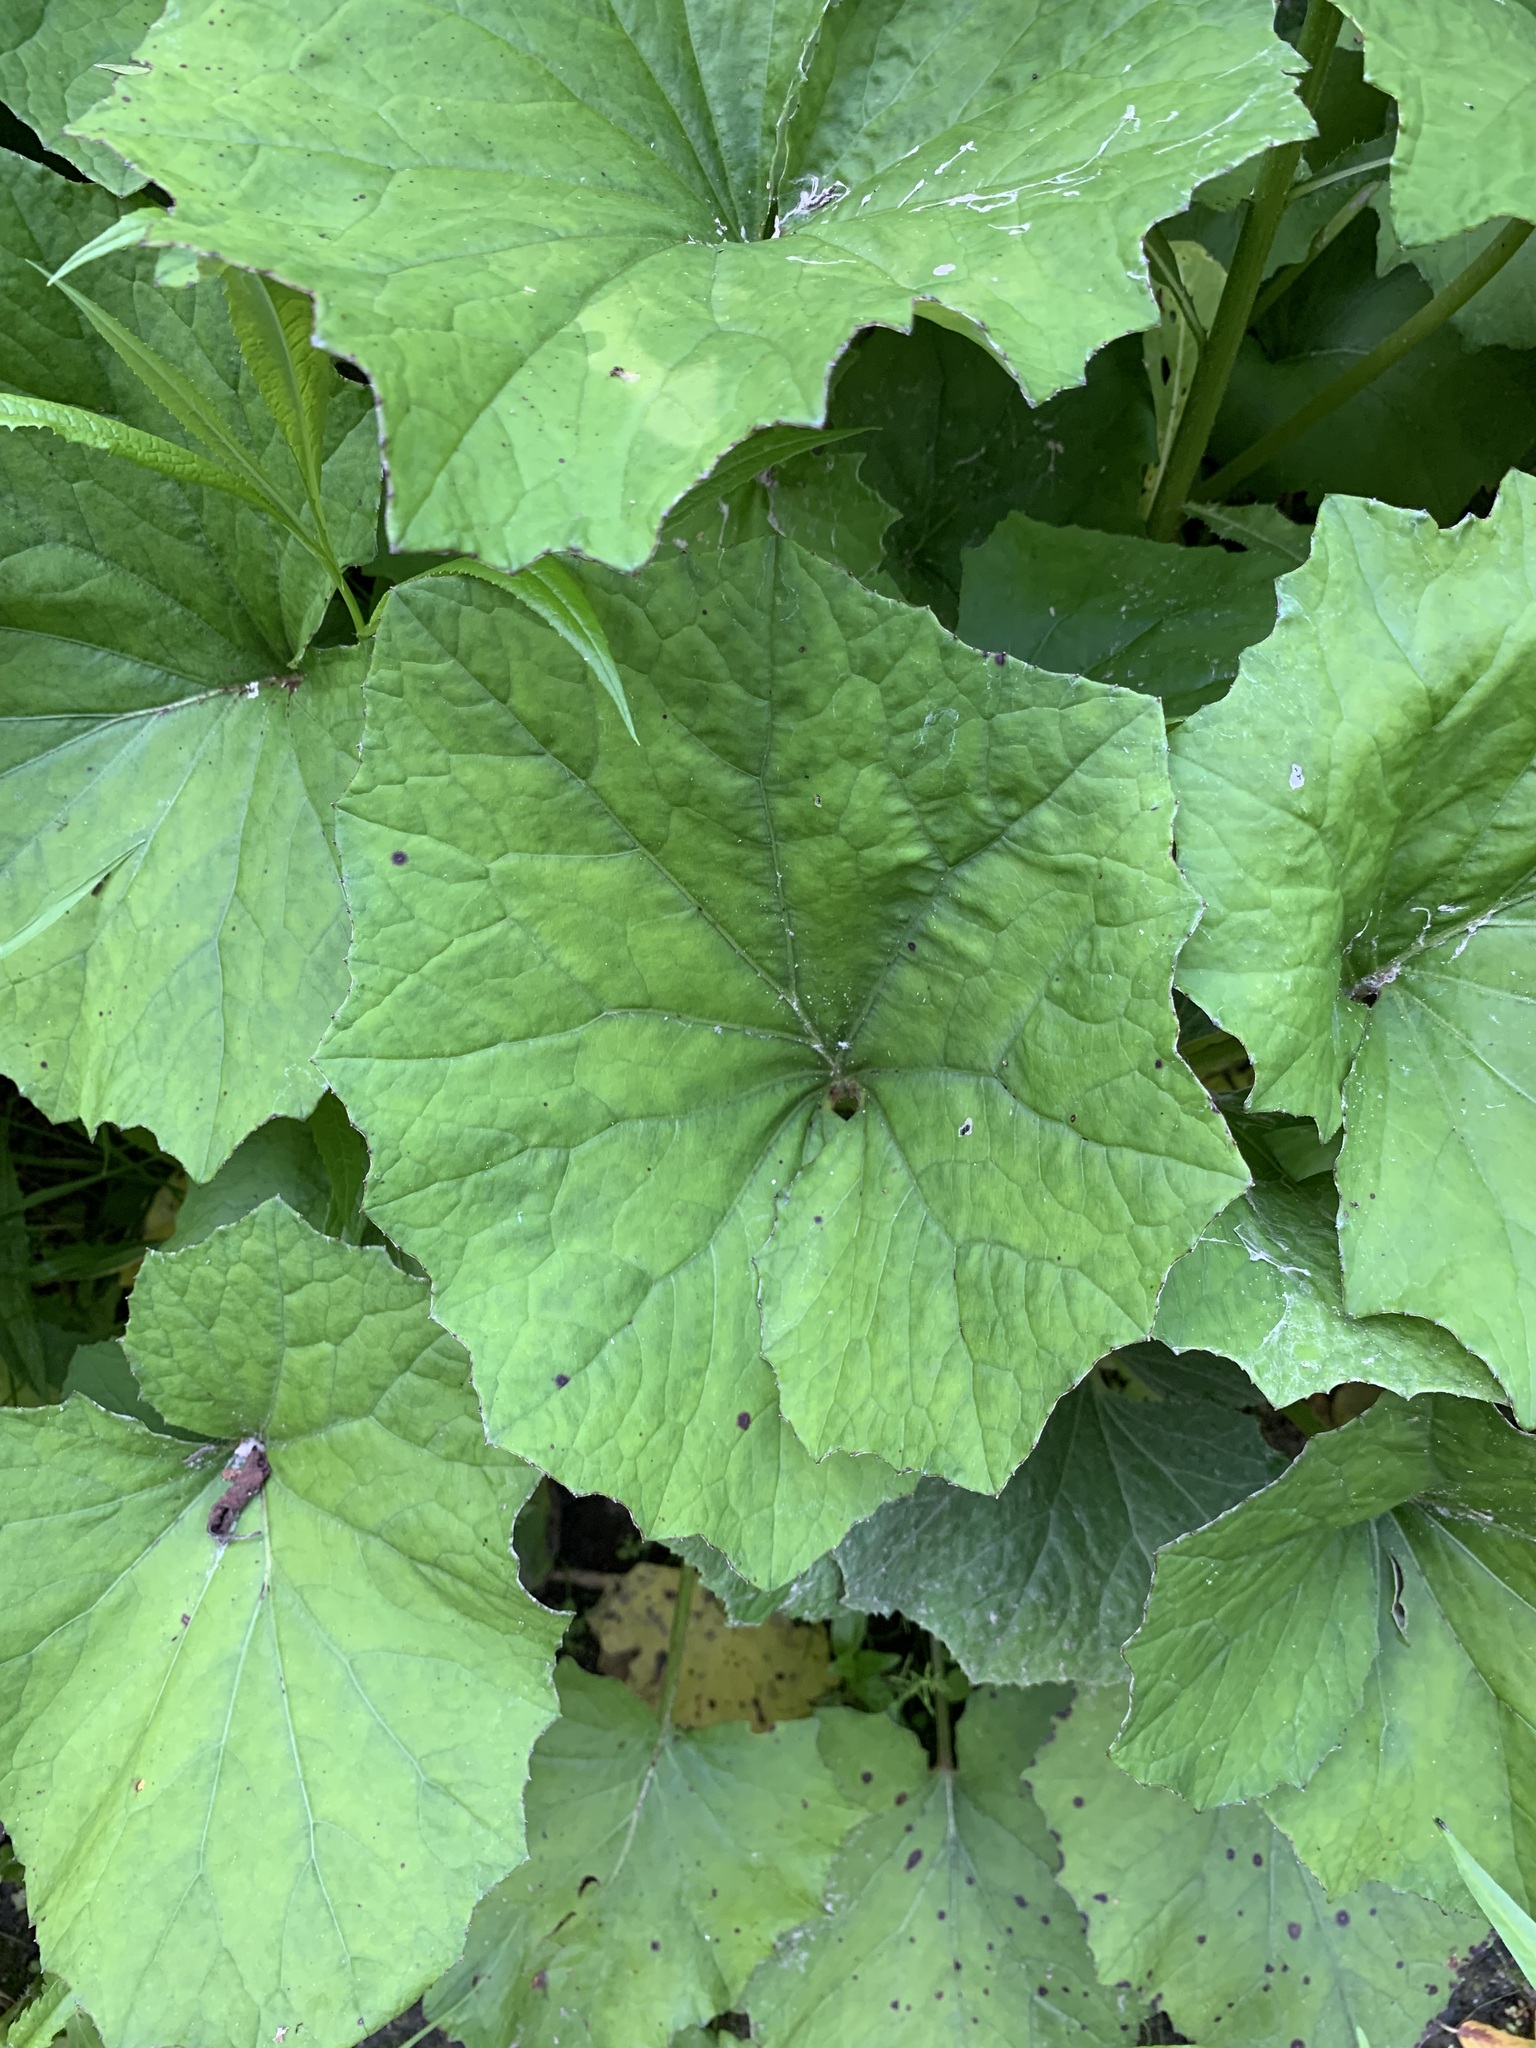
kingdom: Plantae
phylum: Tracheophyta
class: Magnoliopsida
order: Asterales
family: Asteraceae
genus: Tussilago
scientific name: Tussilago farfara
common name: Coltsfoot
